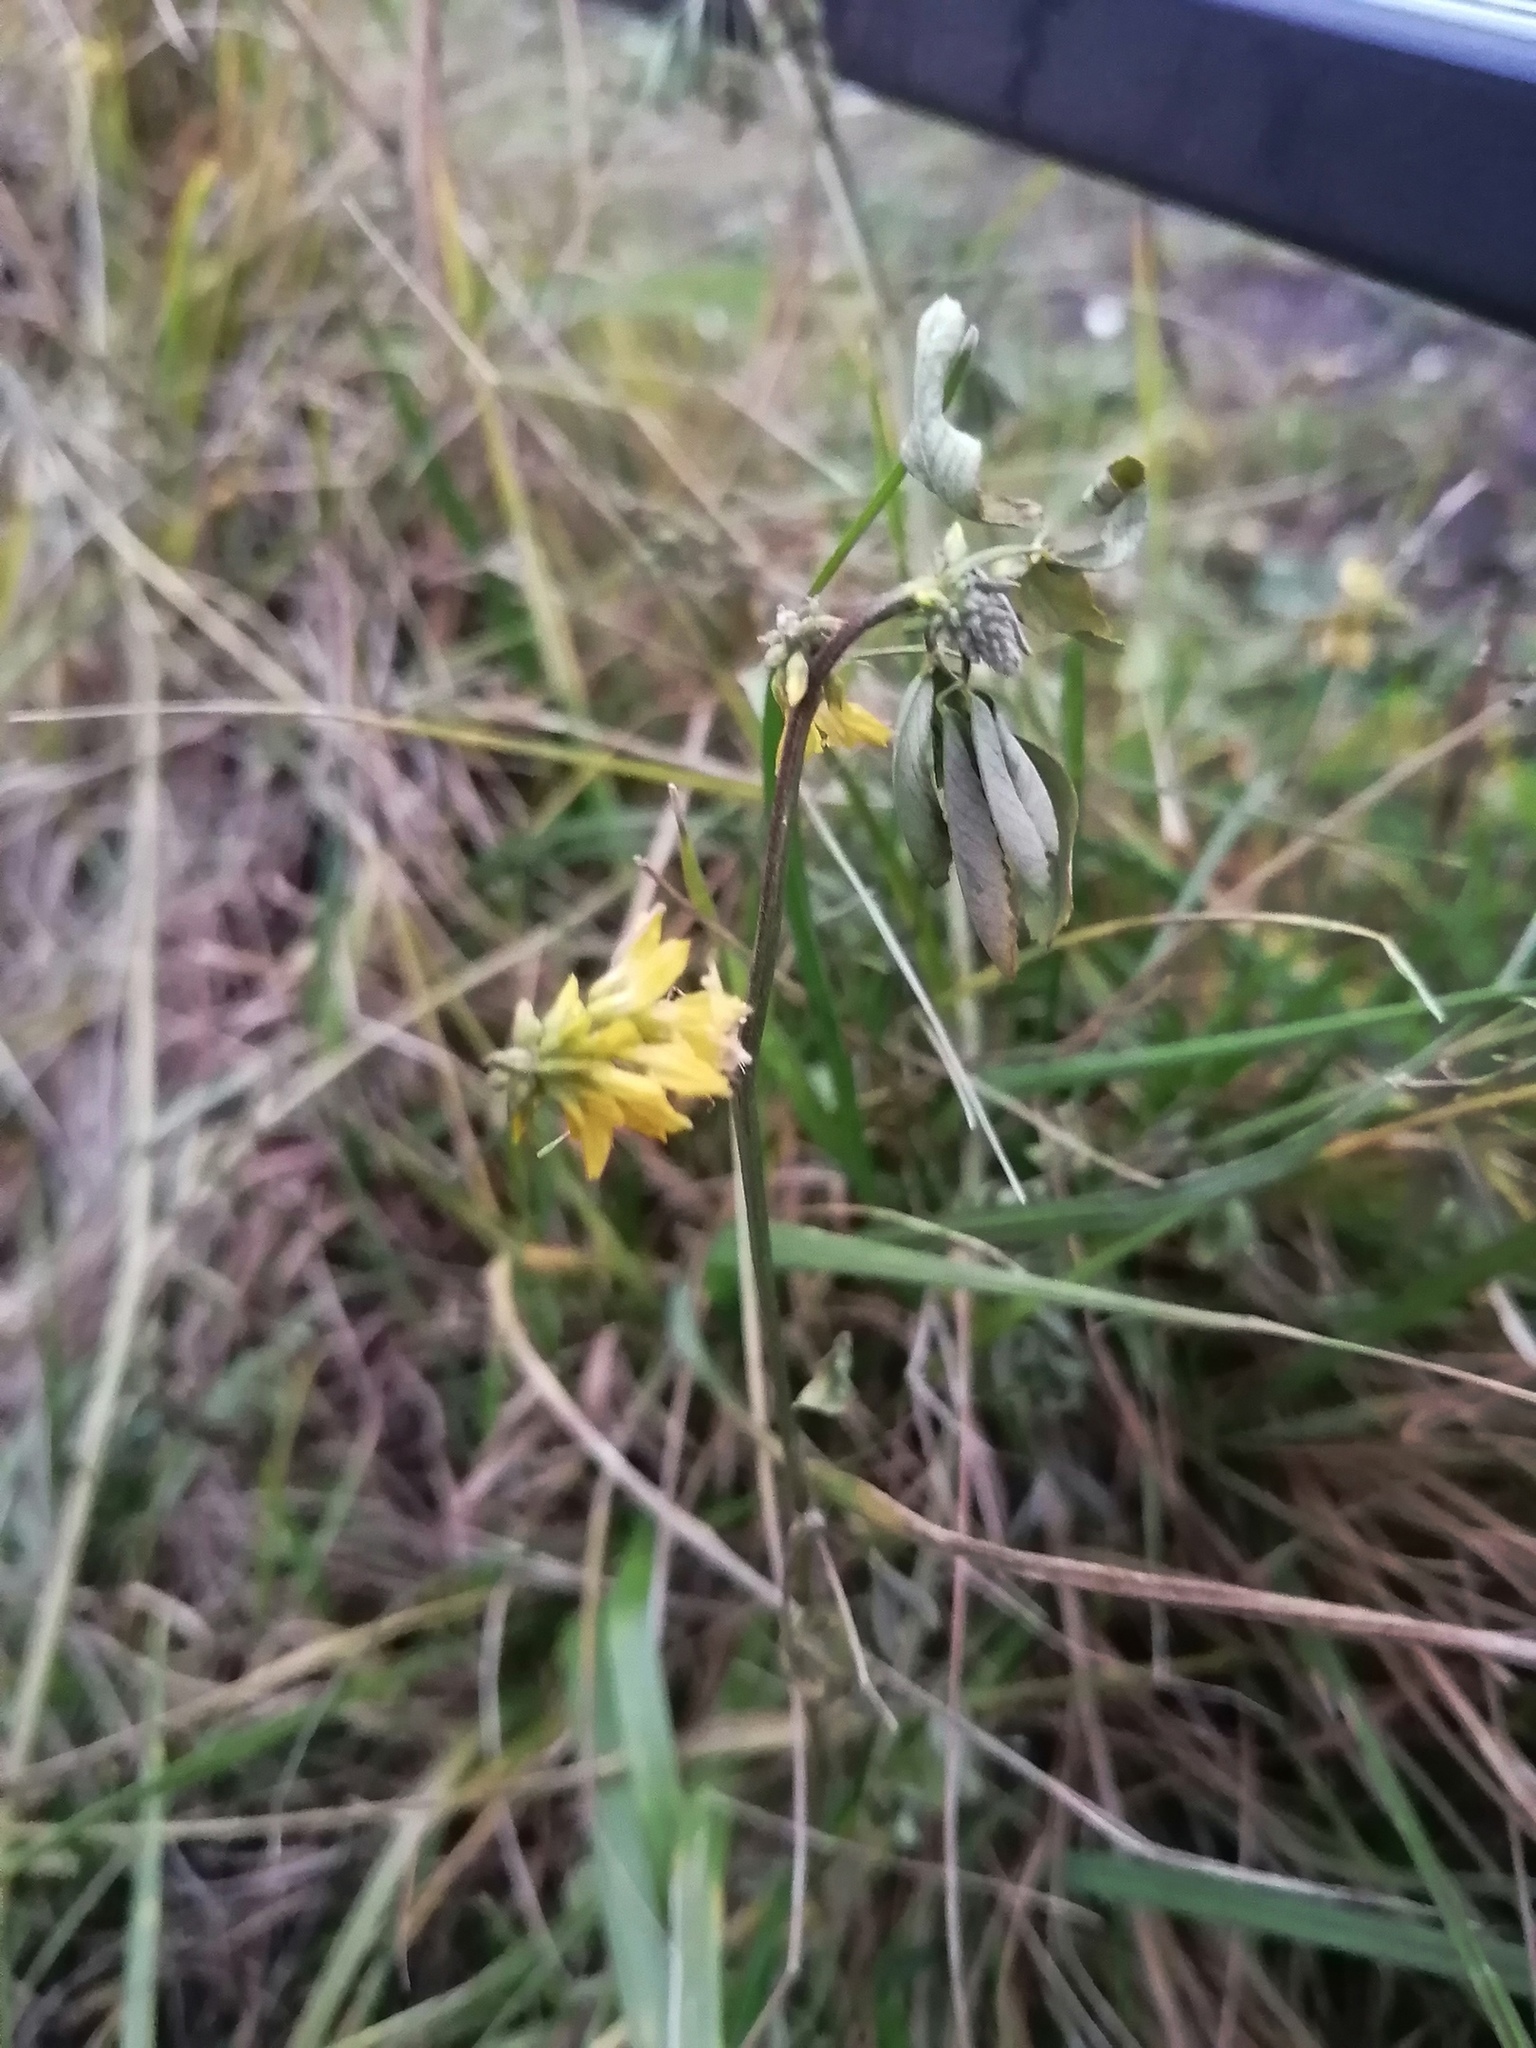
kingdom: Plantae
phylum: Tracheophyta
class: Magnoliopsida
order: Fabales
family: Fabaceae
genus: Melilotus
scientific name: Melilotus officinalis
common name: Sweetclover
